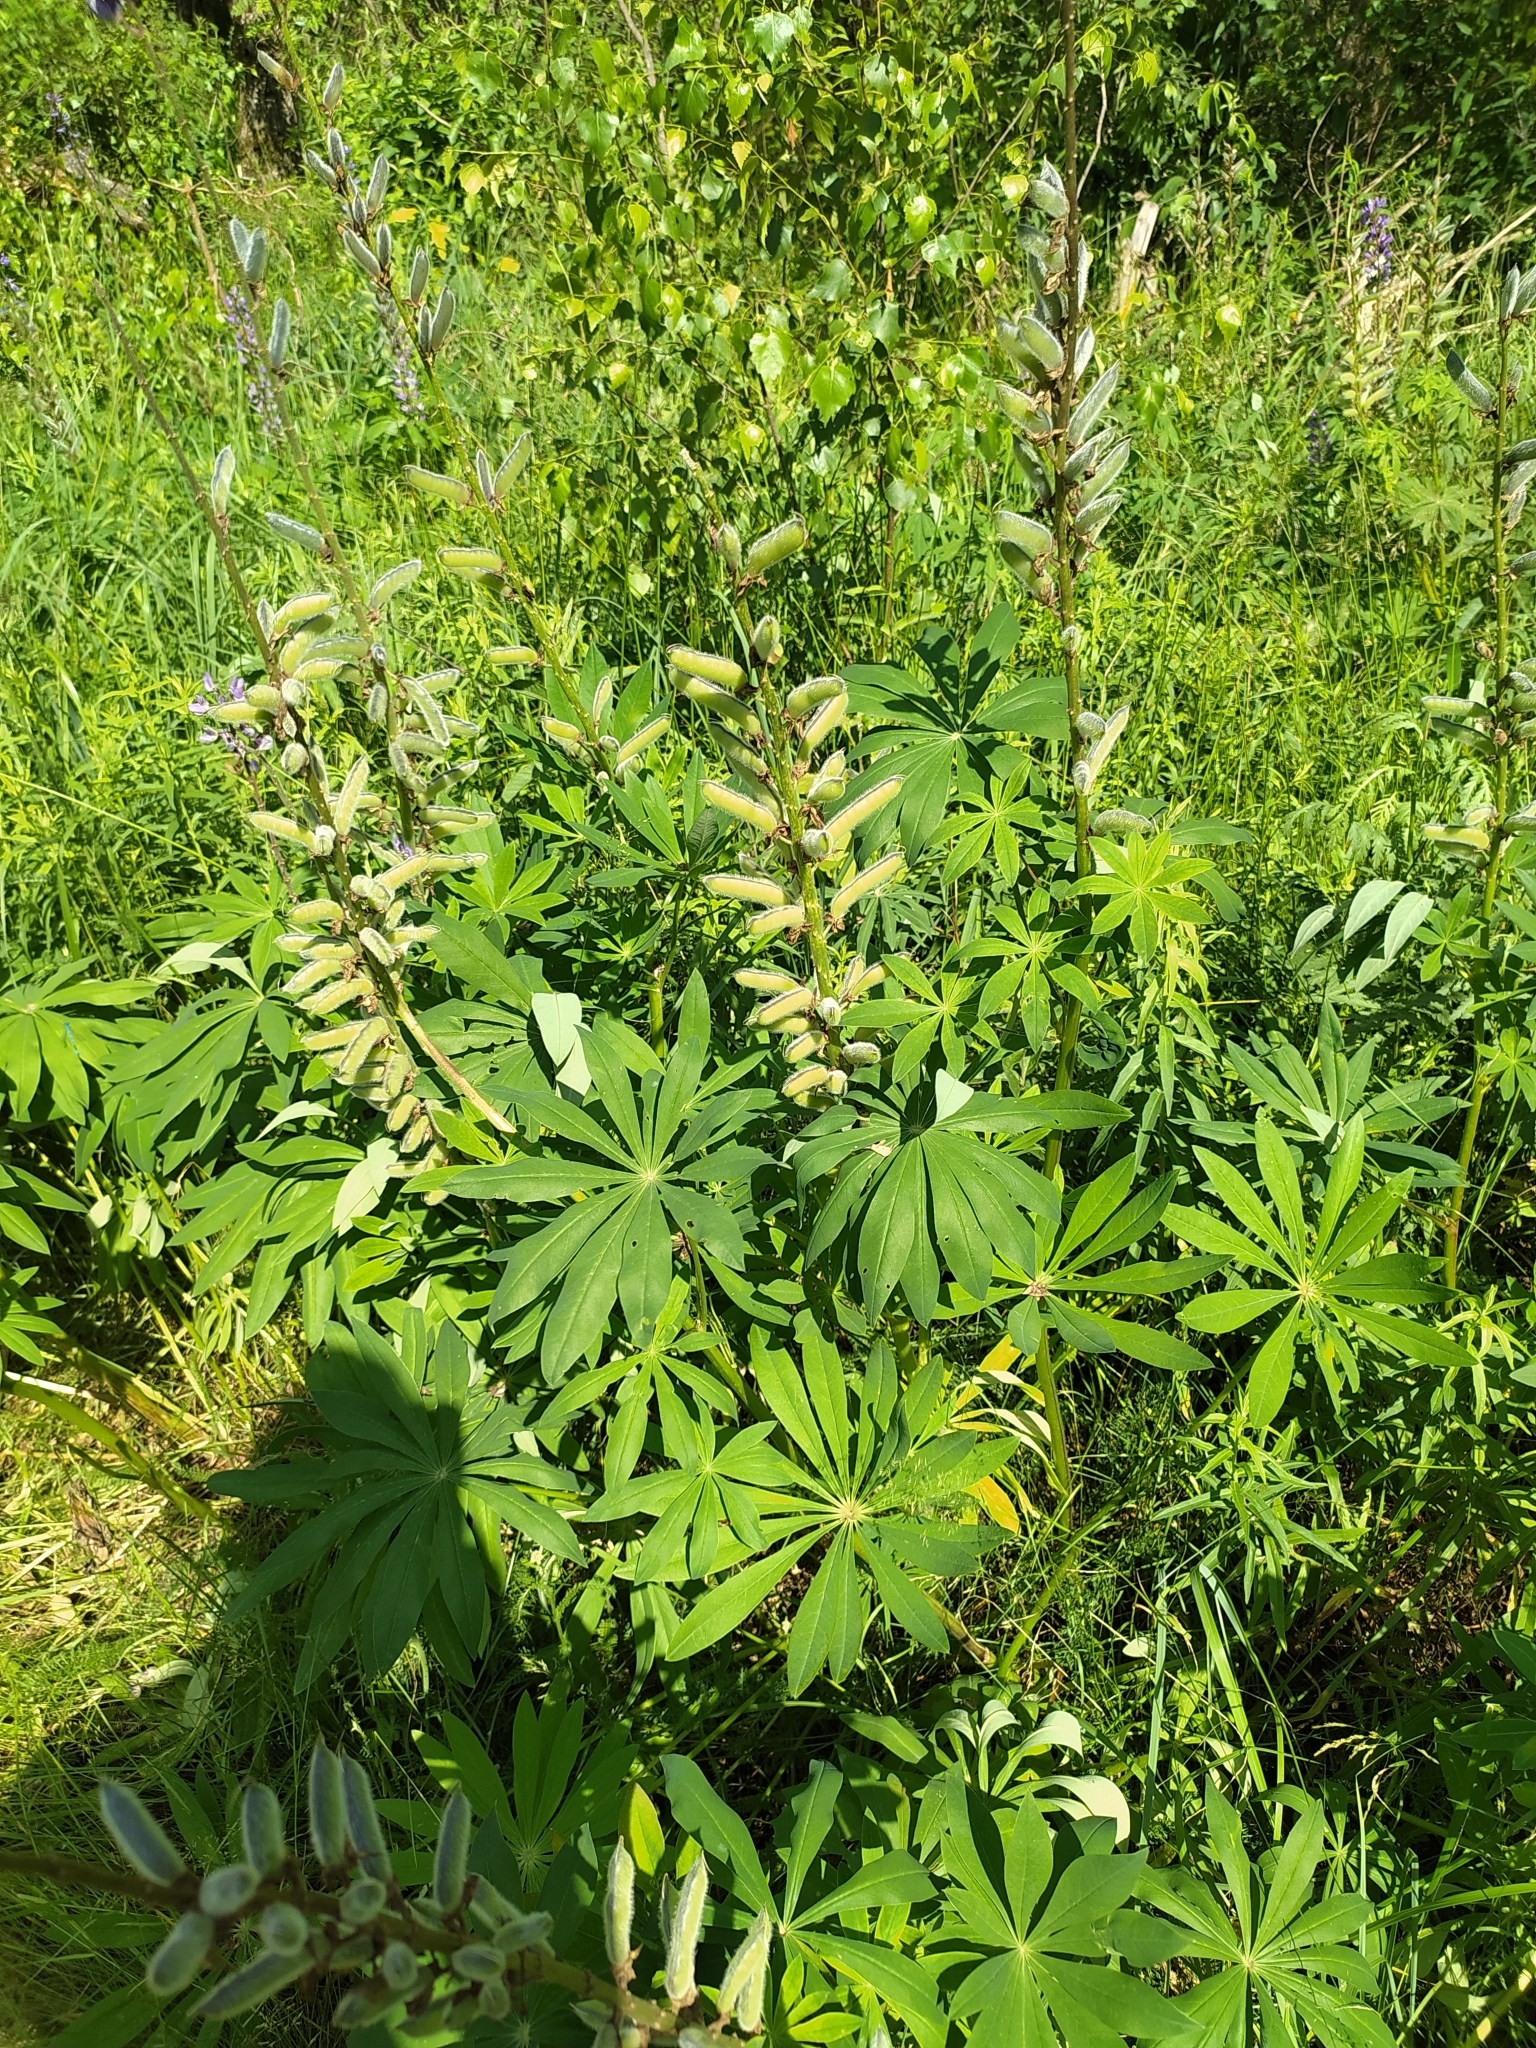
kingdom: Plantae
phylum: Tracheophyta
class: Magnoliopsida
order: Fabales
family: Fabaceae
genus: Lupinus
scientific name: Lupinus polyphyllus
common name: Garden lupin
